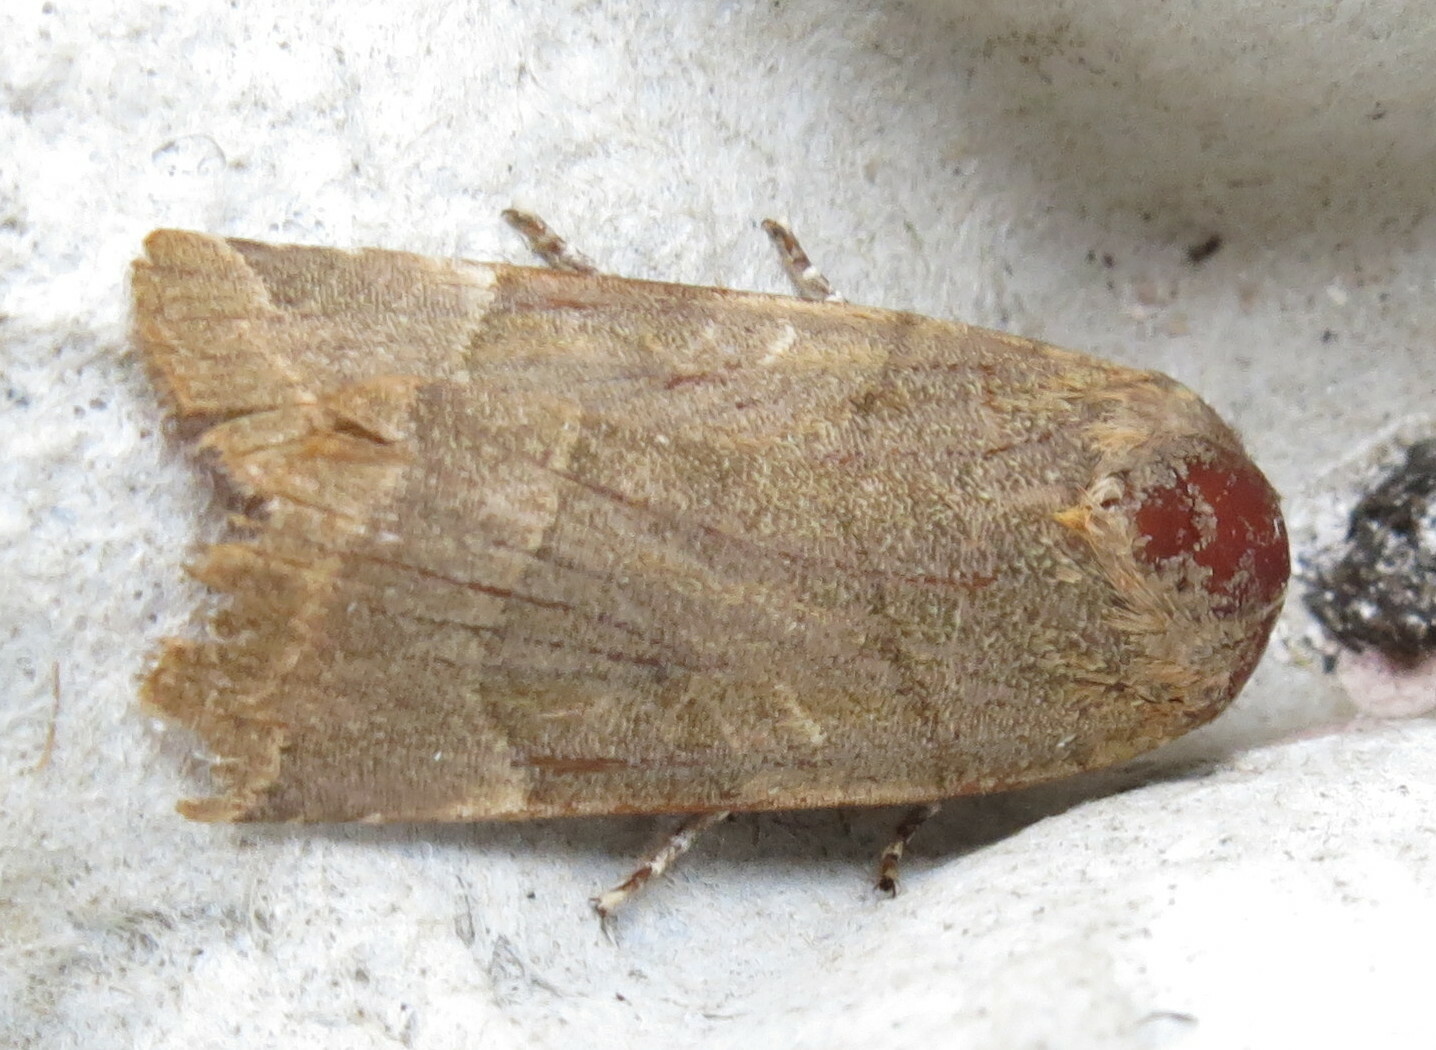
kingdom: Animalia
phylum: Arthropoda
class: Insecta
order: Lepidoptera
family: Noctuidae
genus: Noctua
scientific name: Noctua fimbriata
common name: Broad-bordered yellow underwing
